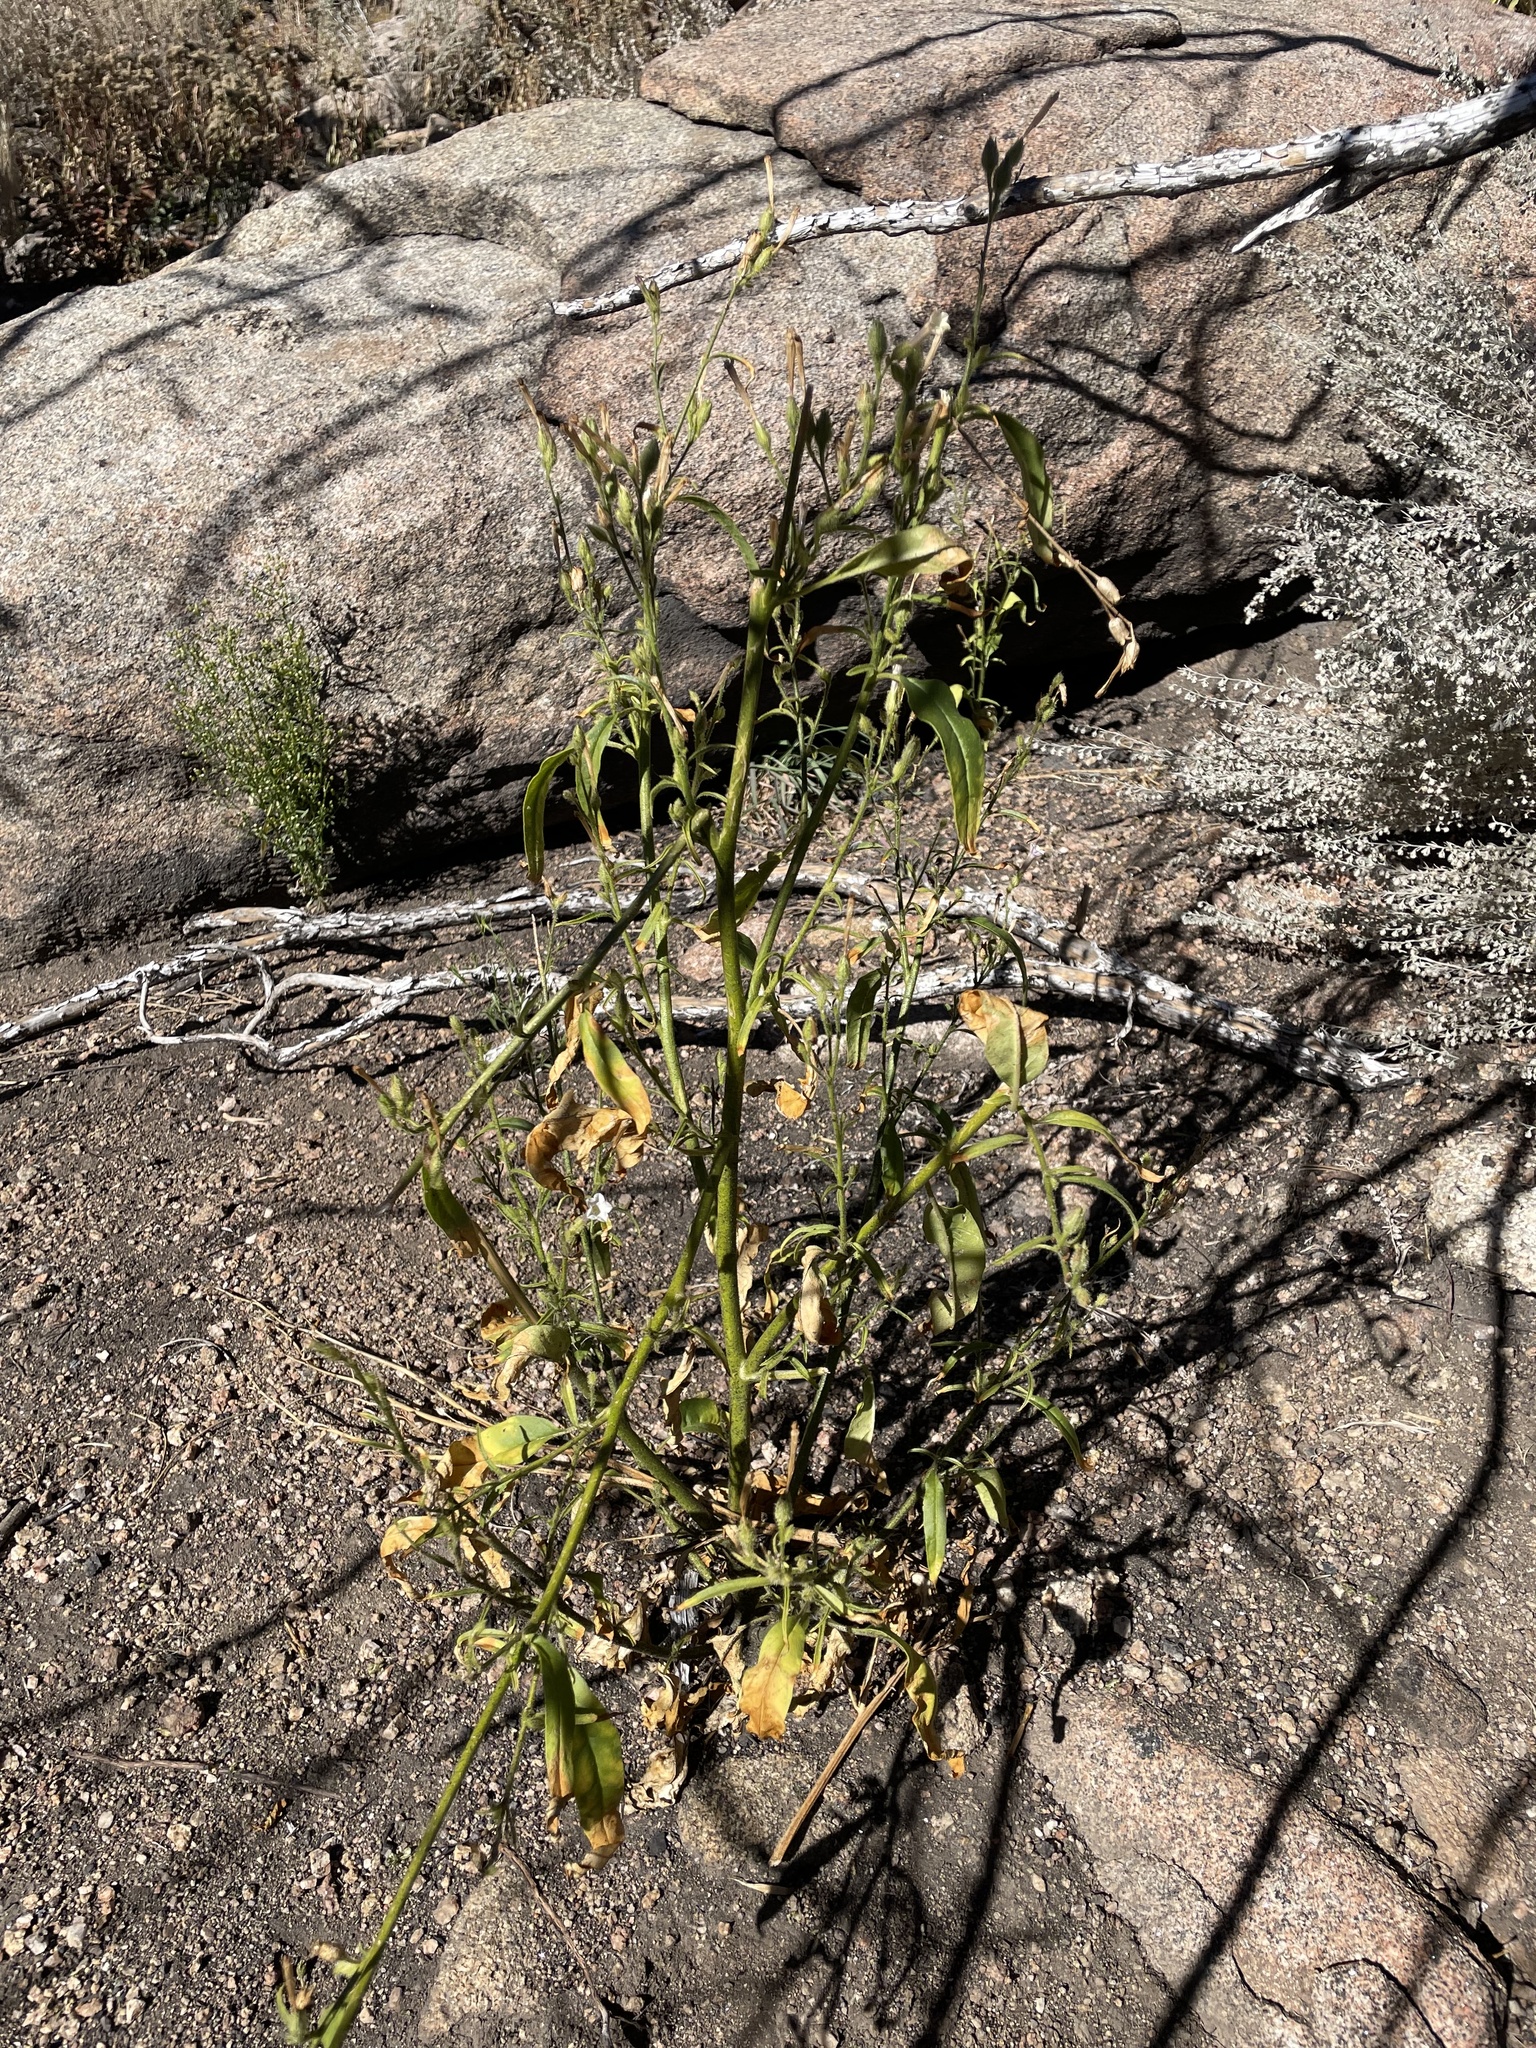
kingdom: Plantae
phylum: Tracheophyta
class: Magnoliopsida
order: Solanales
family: Solanaceae
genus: Nicotiana
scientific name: Nicotiana attenuata
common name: Coyote tobacco
